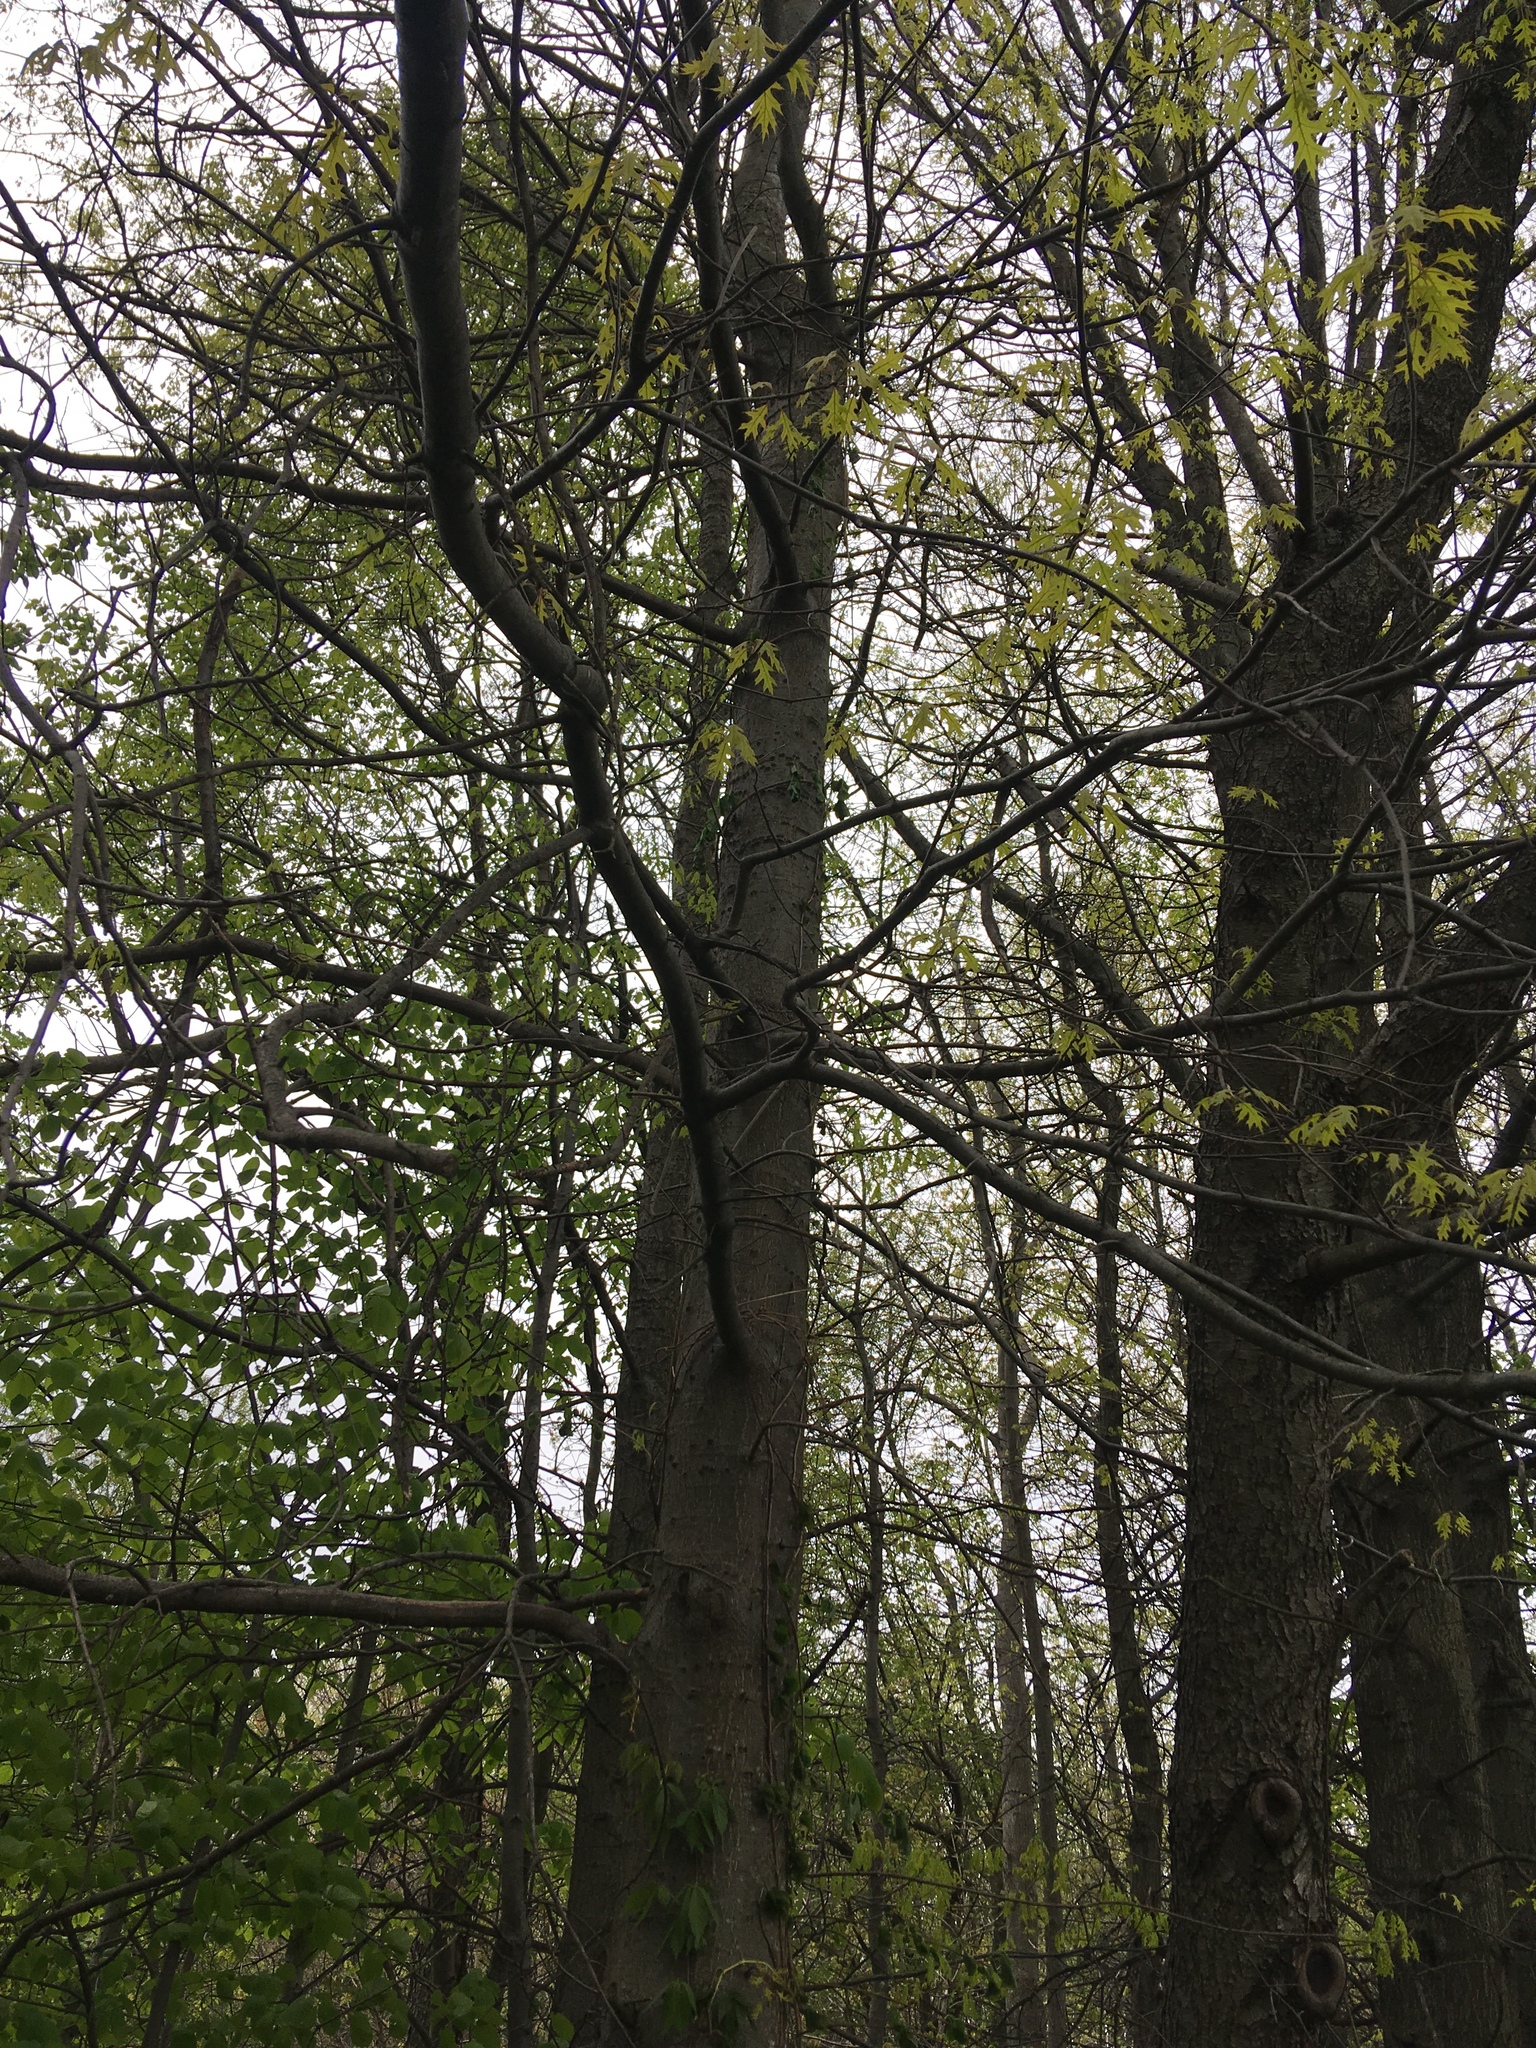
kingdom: Plantae
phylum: Tracheophyta
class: Magnoliopsida
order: Fagales
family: Fagaceae
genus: Quercus
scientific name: Quercus palustris
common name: Pin oak
